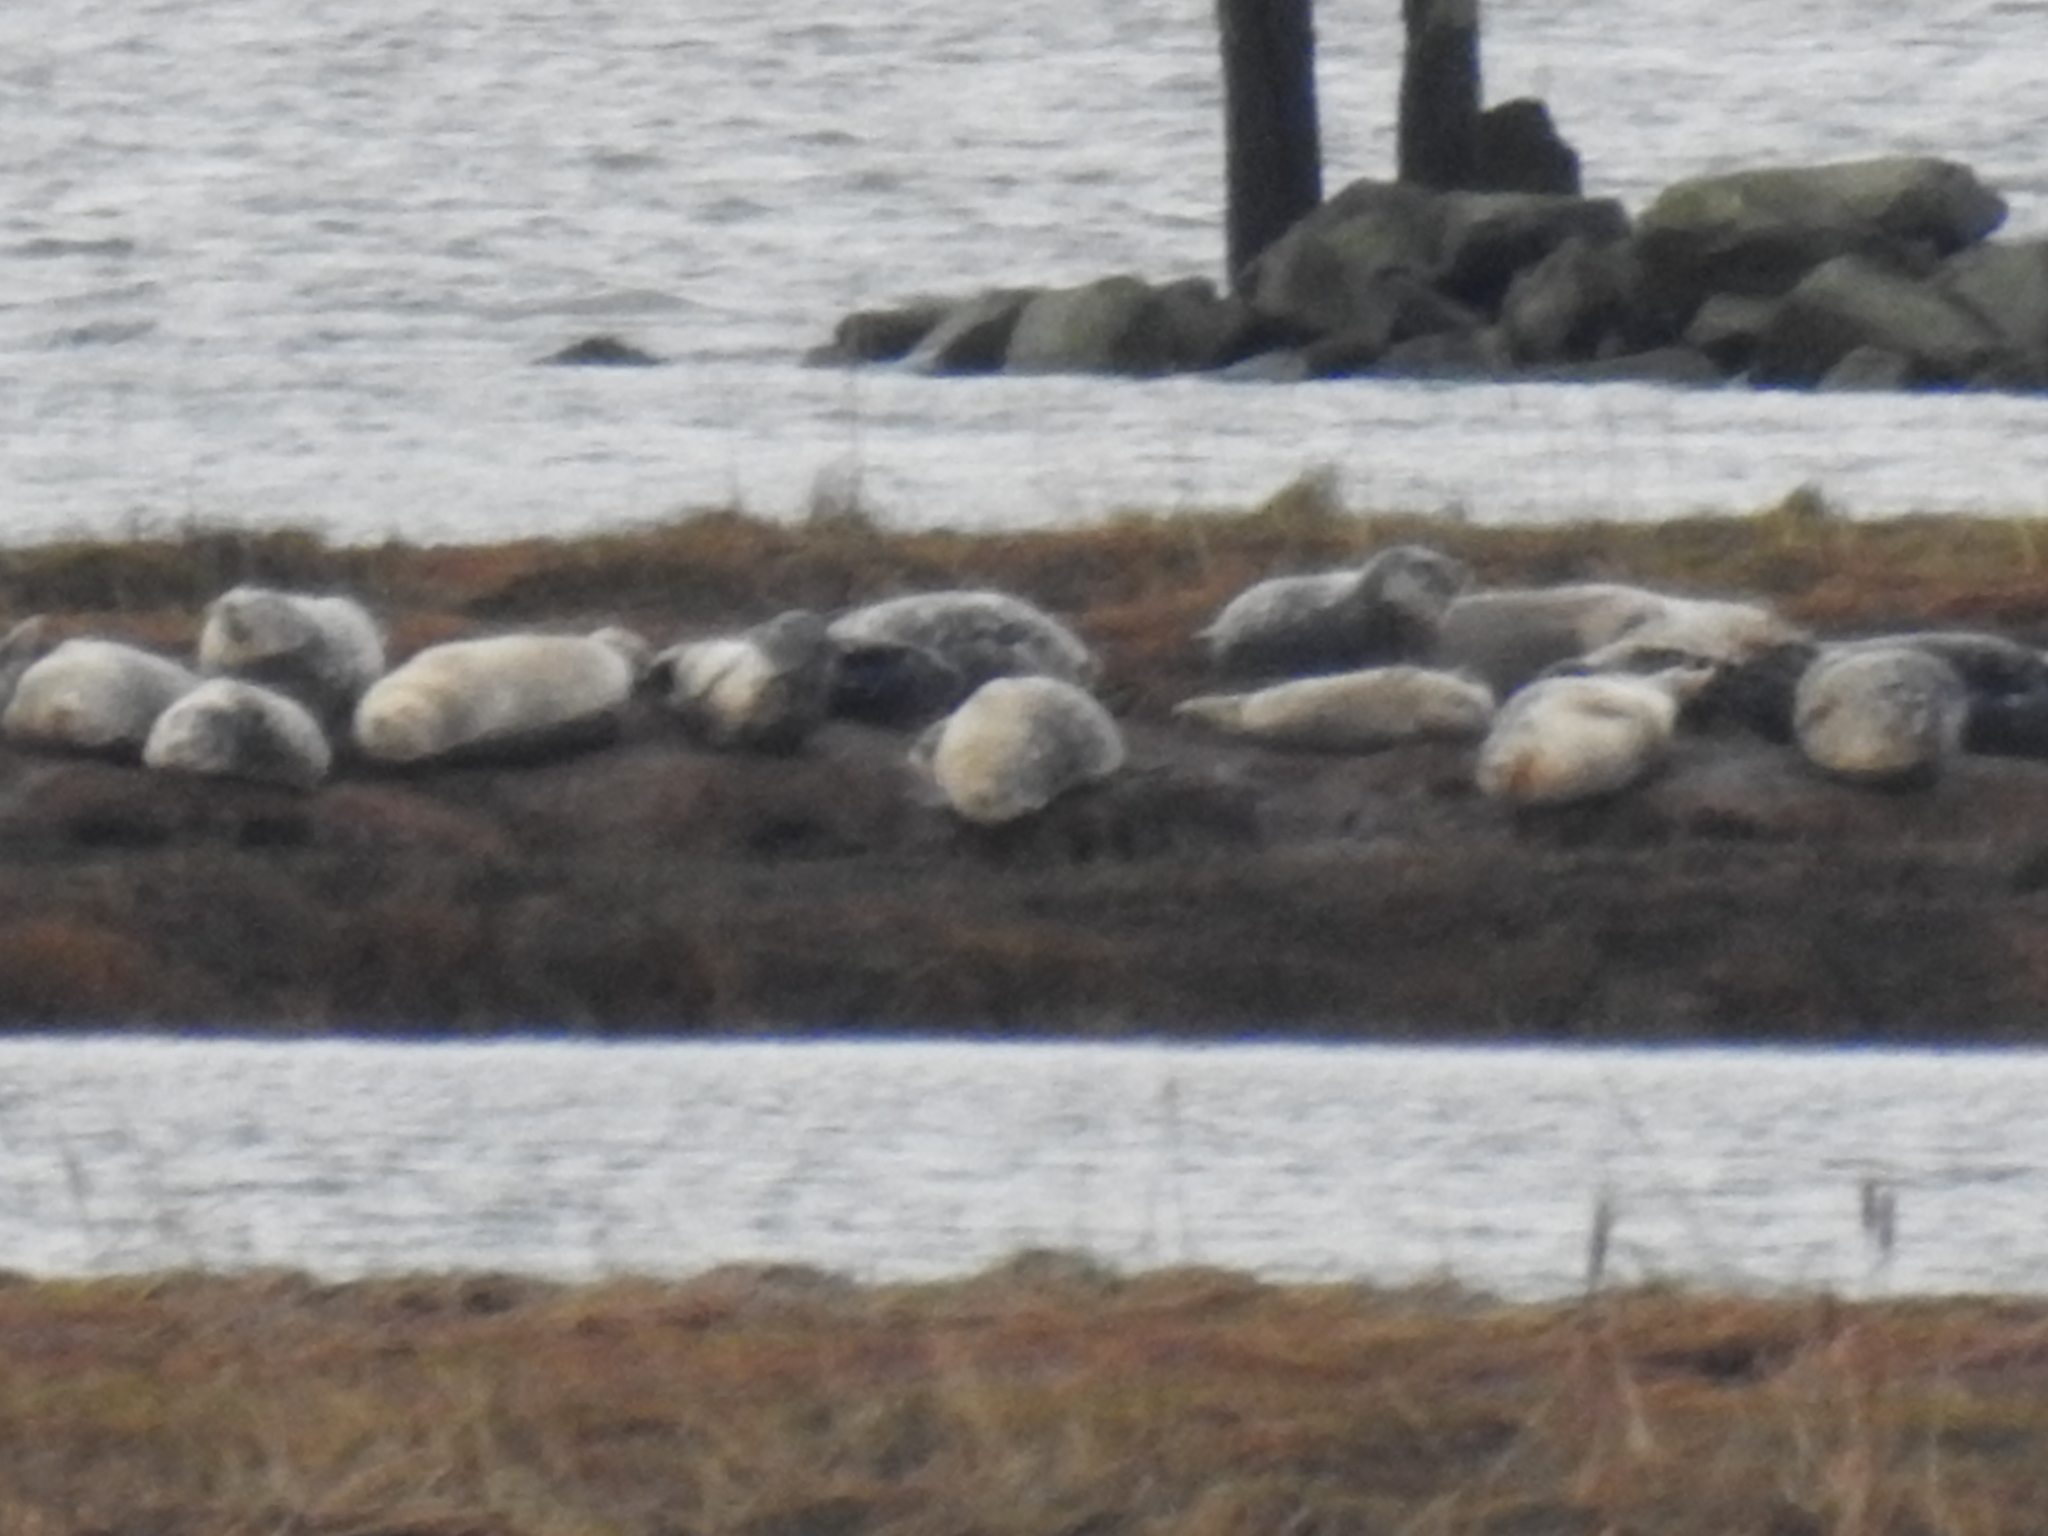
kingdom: Animalia
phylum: Chordata
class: Mammalia
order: Carnivora
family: Phocidae
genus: Phoca
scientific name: Phoca vitulina
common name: Harbor seal
